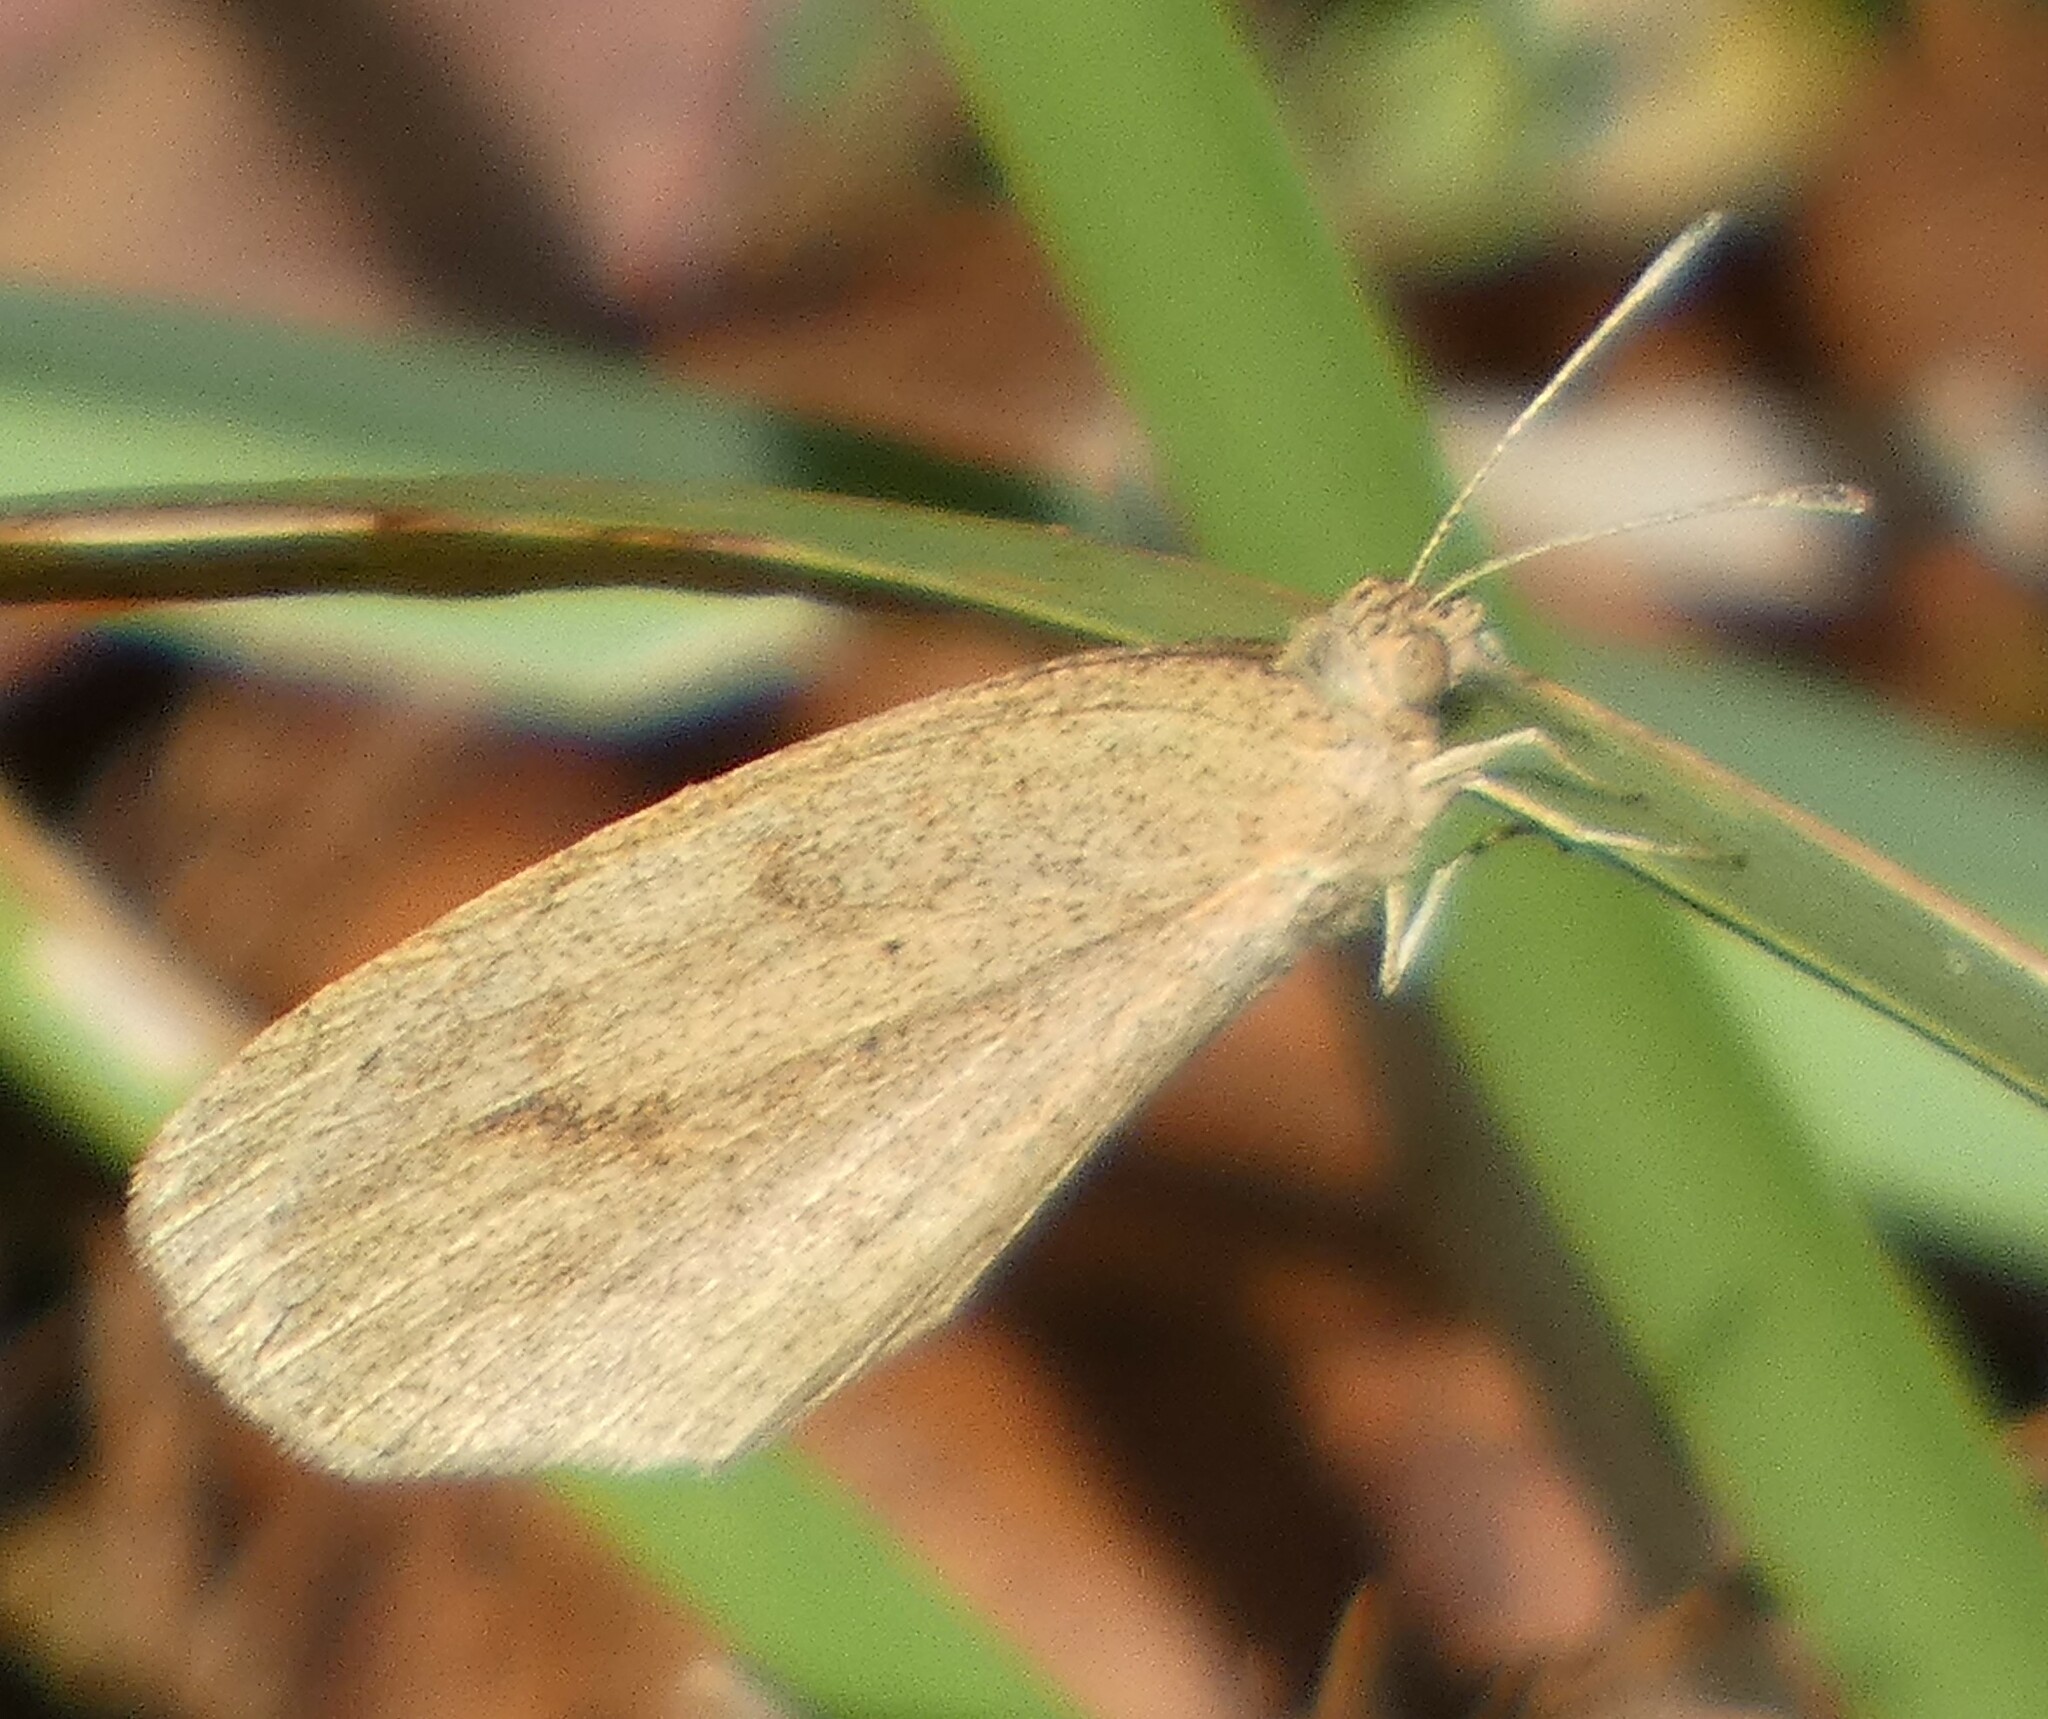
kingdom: Animalia
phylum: Arthropoda
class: Insecta
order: Lepidoptera
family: Pieridae
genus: Eurema
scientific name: Eurema daira
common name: Barred sulphur
